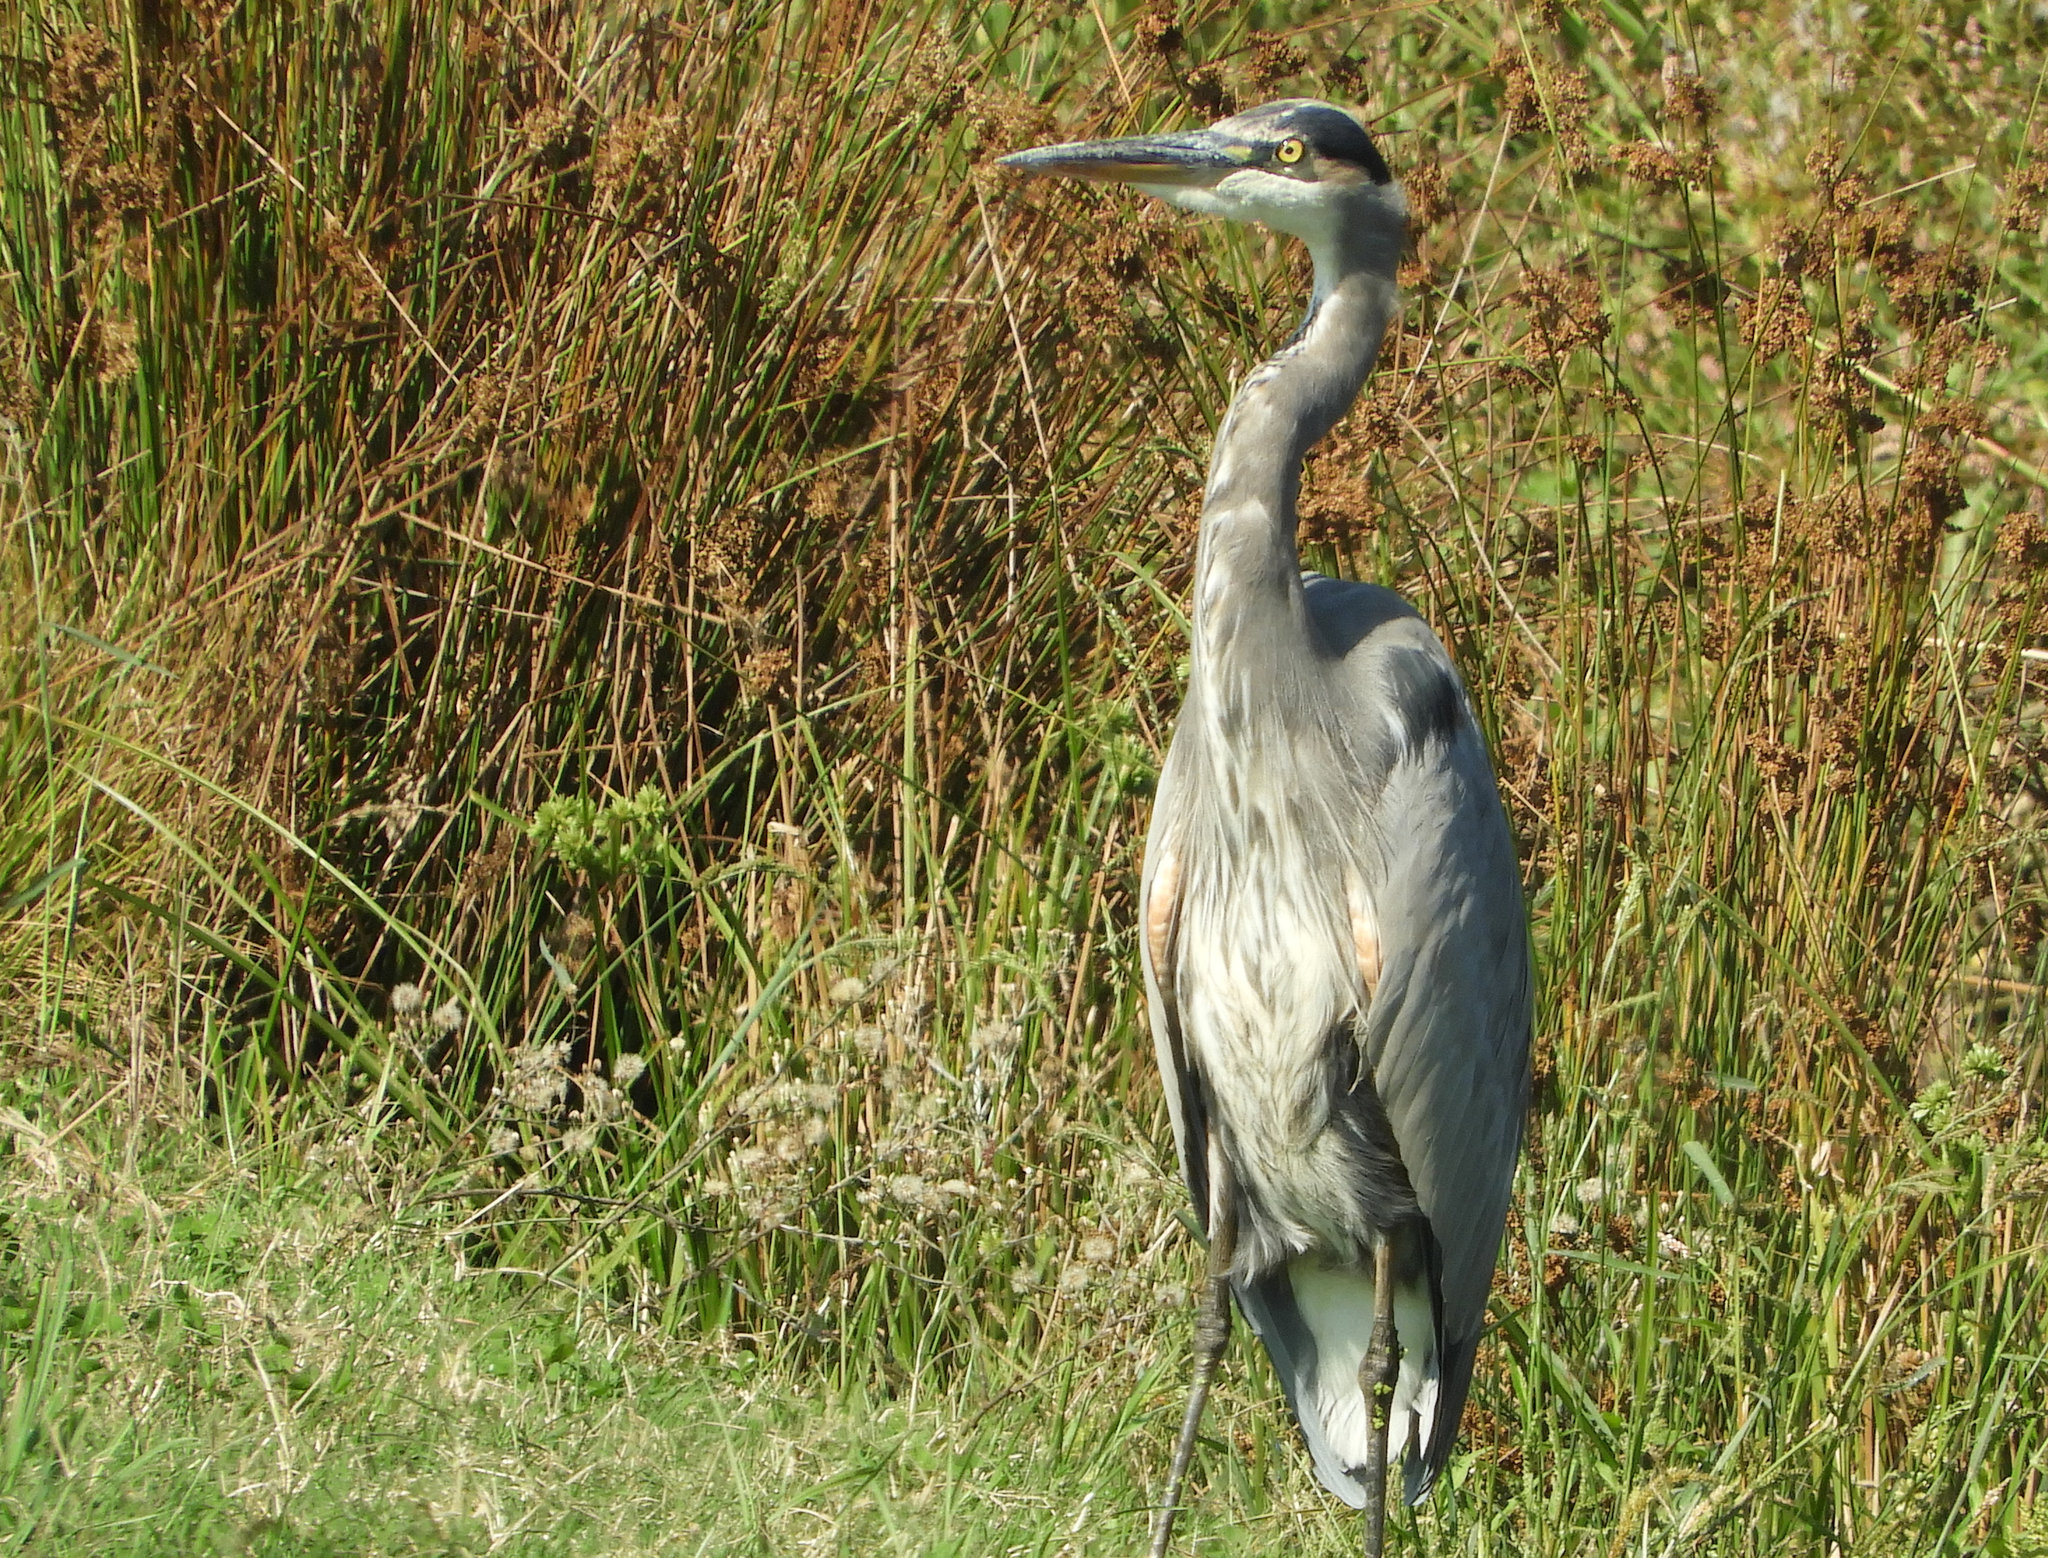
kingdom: Animalia
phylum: Chordata
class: Aves
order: Pelecaniformes
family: Ardeidae
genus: Ardea
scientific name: Ardea herodias
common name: Great blue heron
